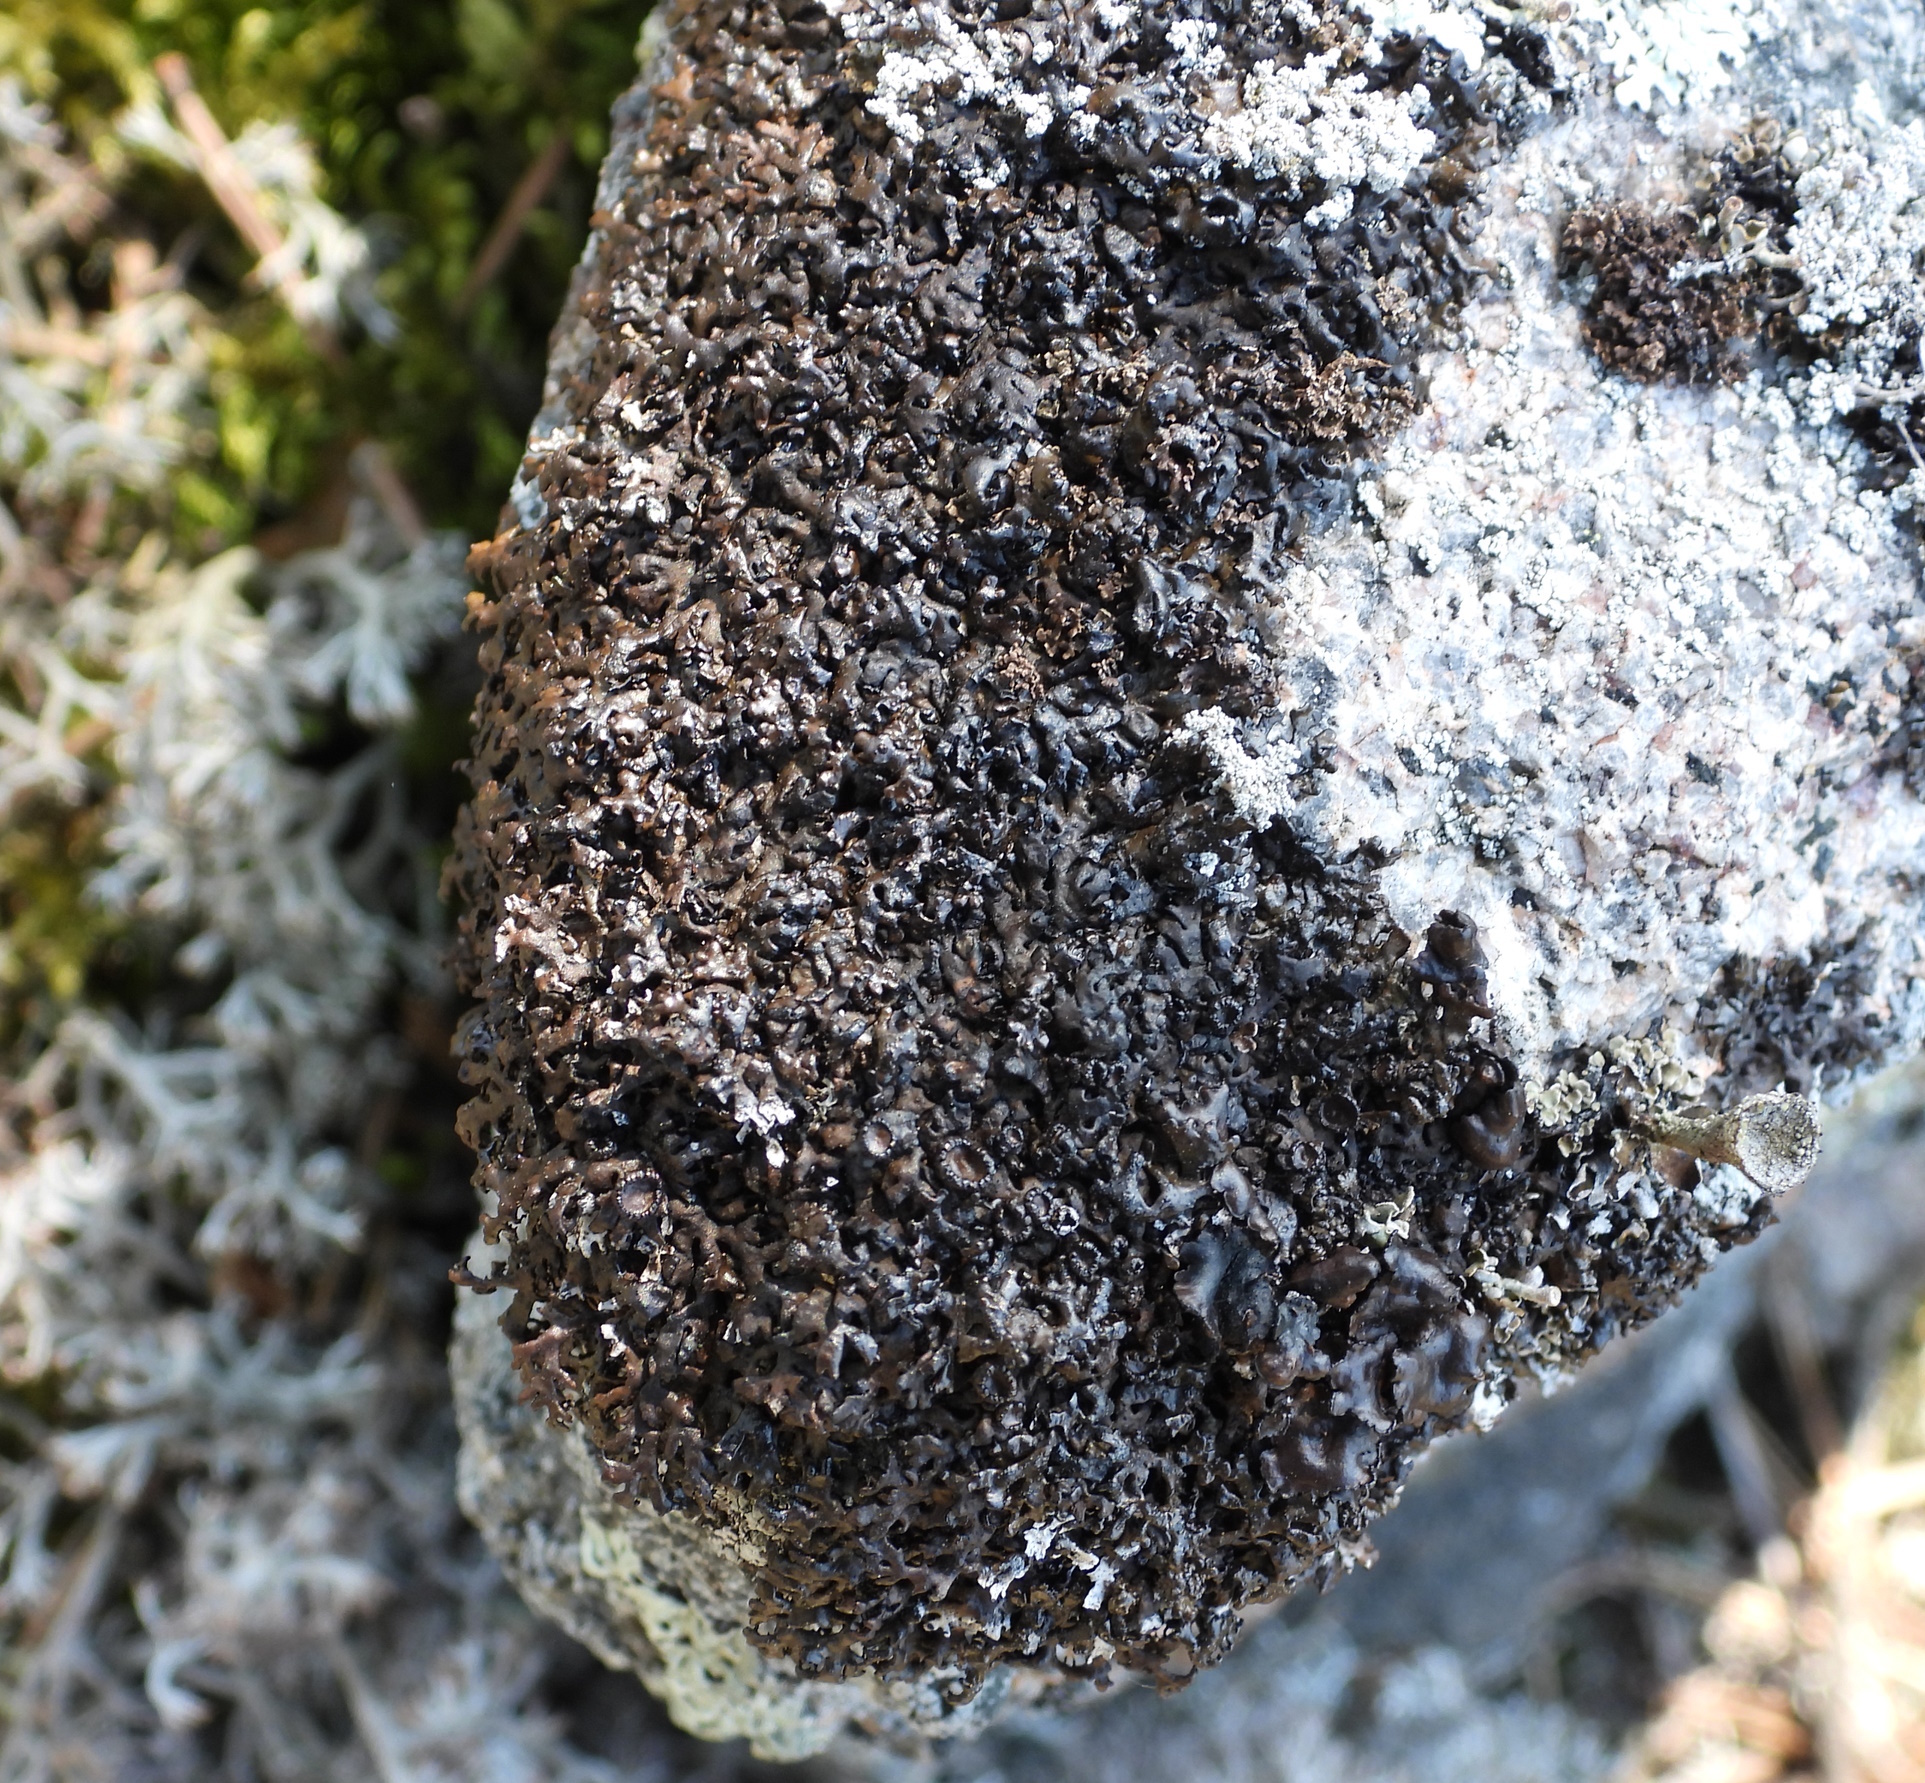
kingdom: Fungi
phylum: Ascomycota
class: Lecanoromycetes
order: Lecanorales
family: Parmeliaceae
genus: Melanelia
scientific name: Melanelia stygia
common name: Alpine camouflage lichen
